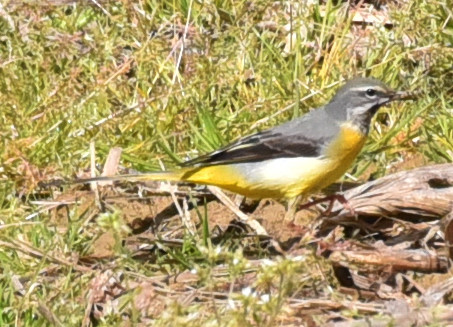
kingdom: Animalia
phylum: Chordata
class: Aves
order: Passeriformes
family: Motacillidae
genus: Motacilla
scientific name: Motacilla cinerea
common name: Grey wagtail
